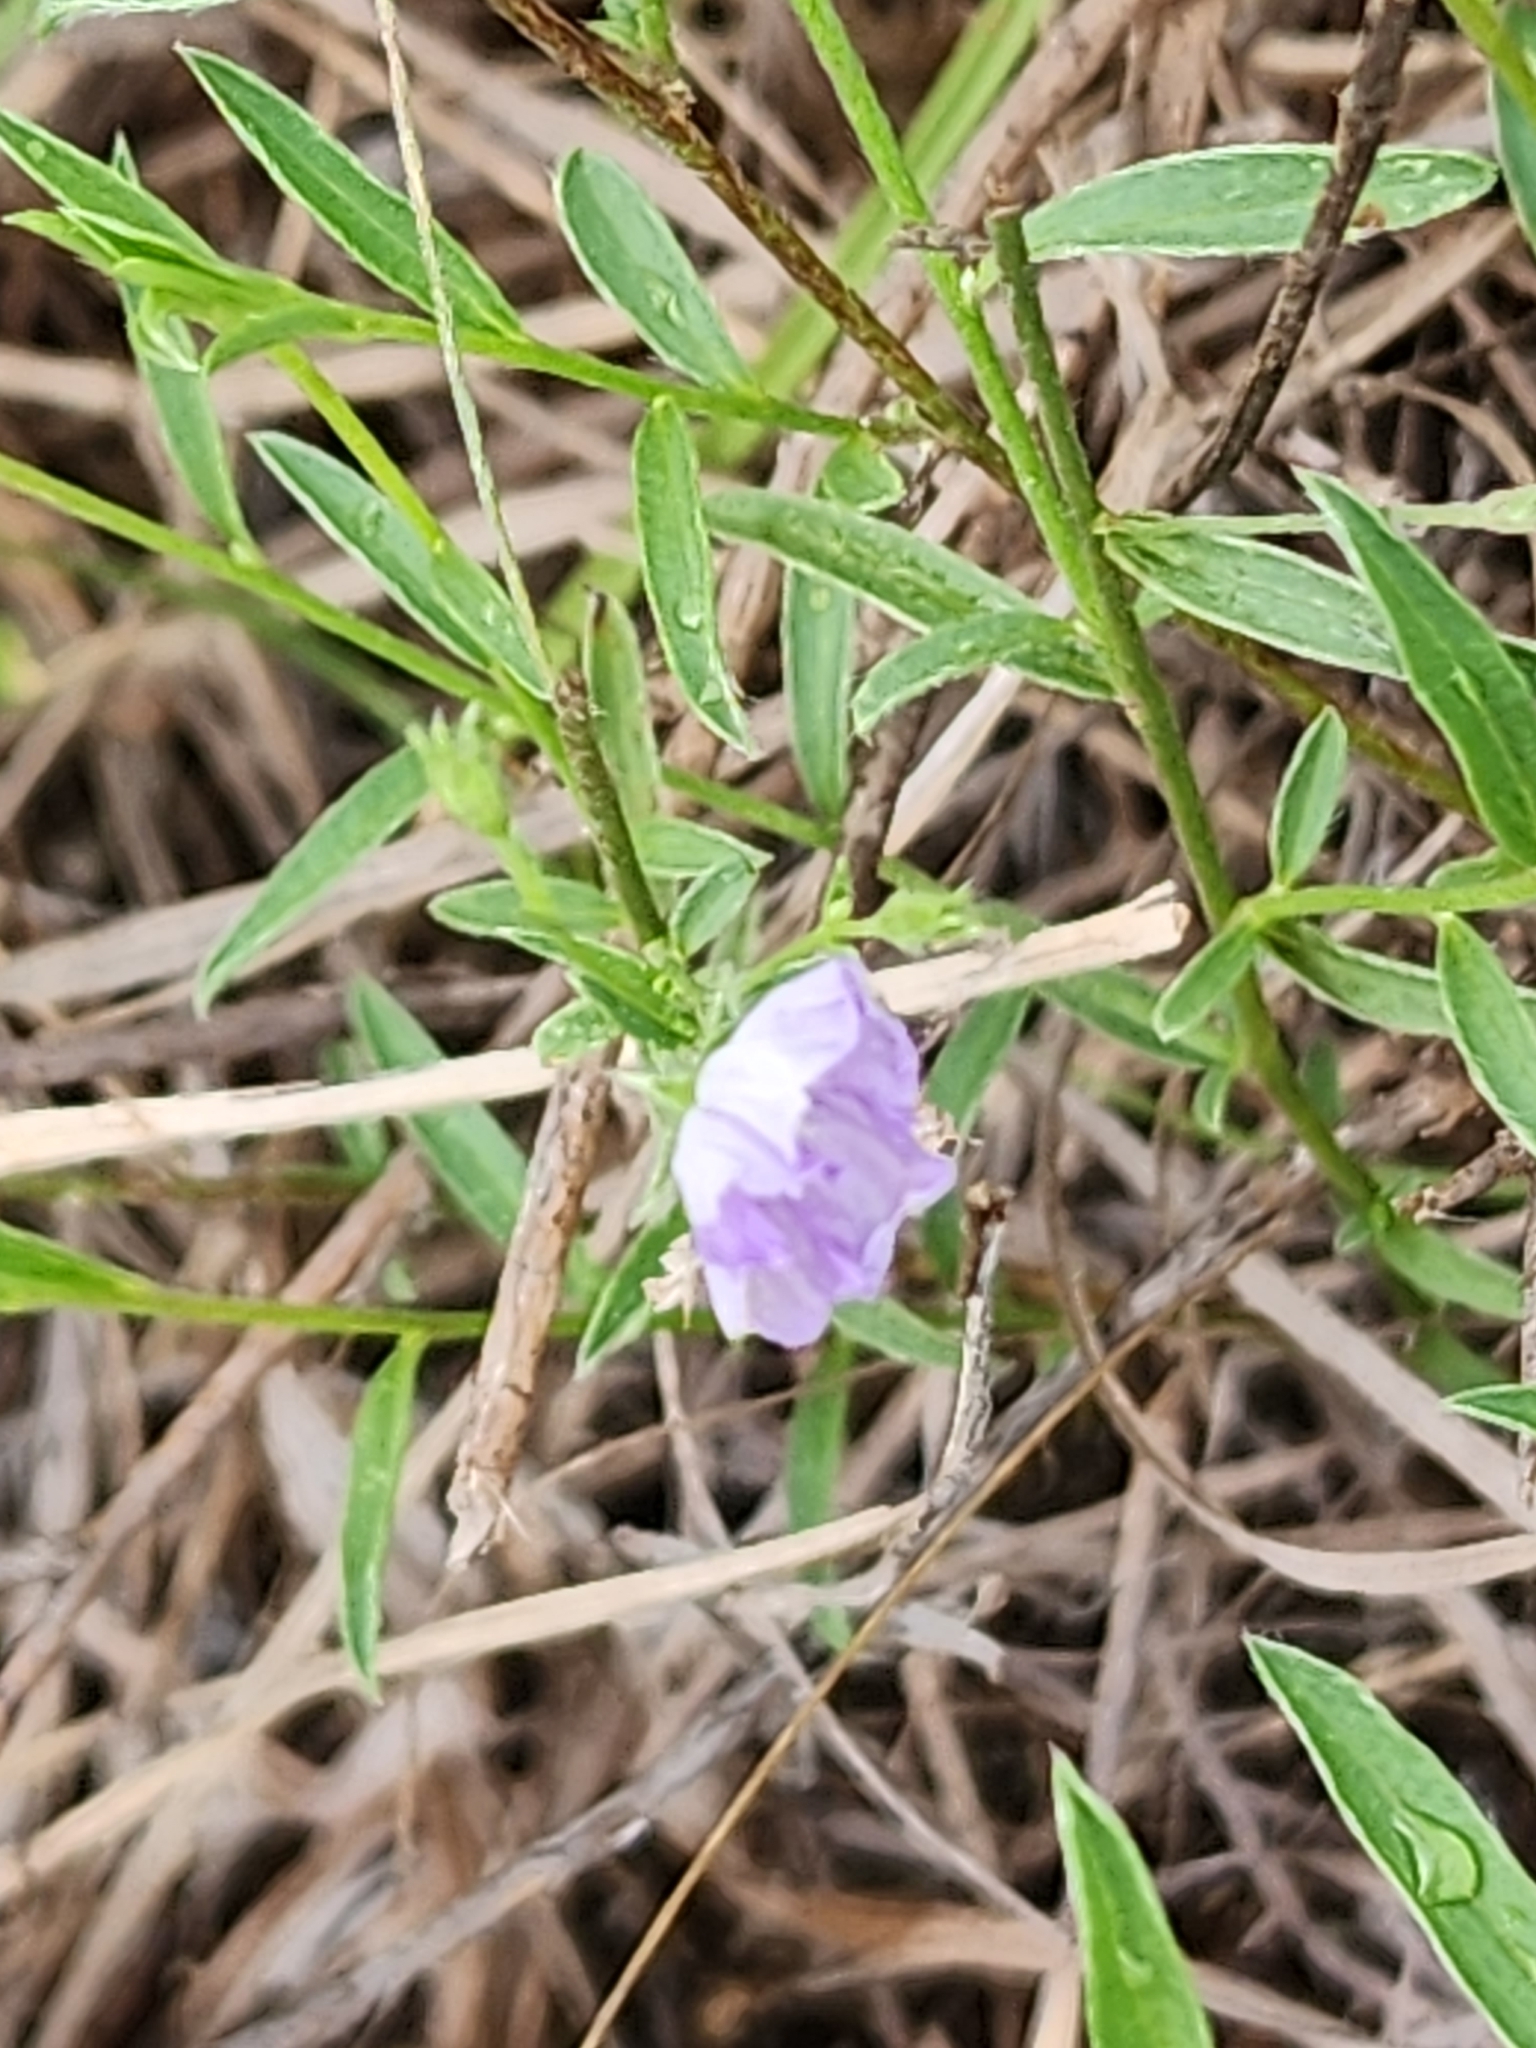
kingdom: Plantae
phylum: Tracheophyta
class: Magnoliopsida
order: Solanales
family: Convolvulaceae
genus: Evolvulus
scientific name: Evolvulus alsinoides
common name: Slender dwarf morning-glory
